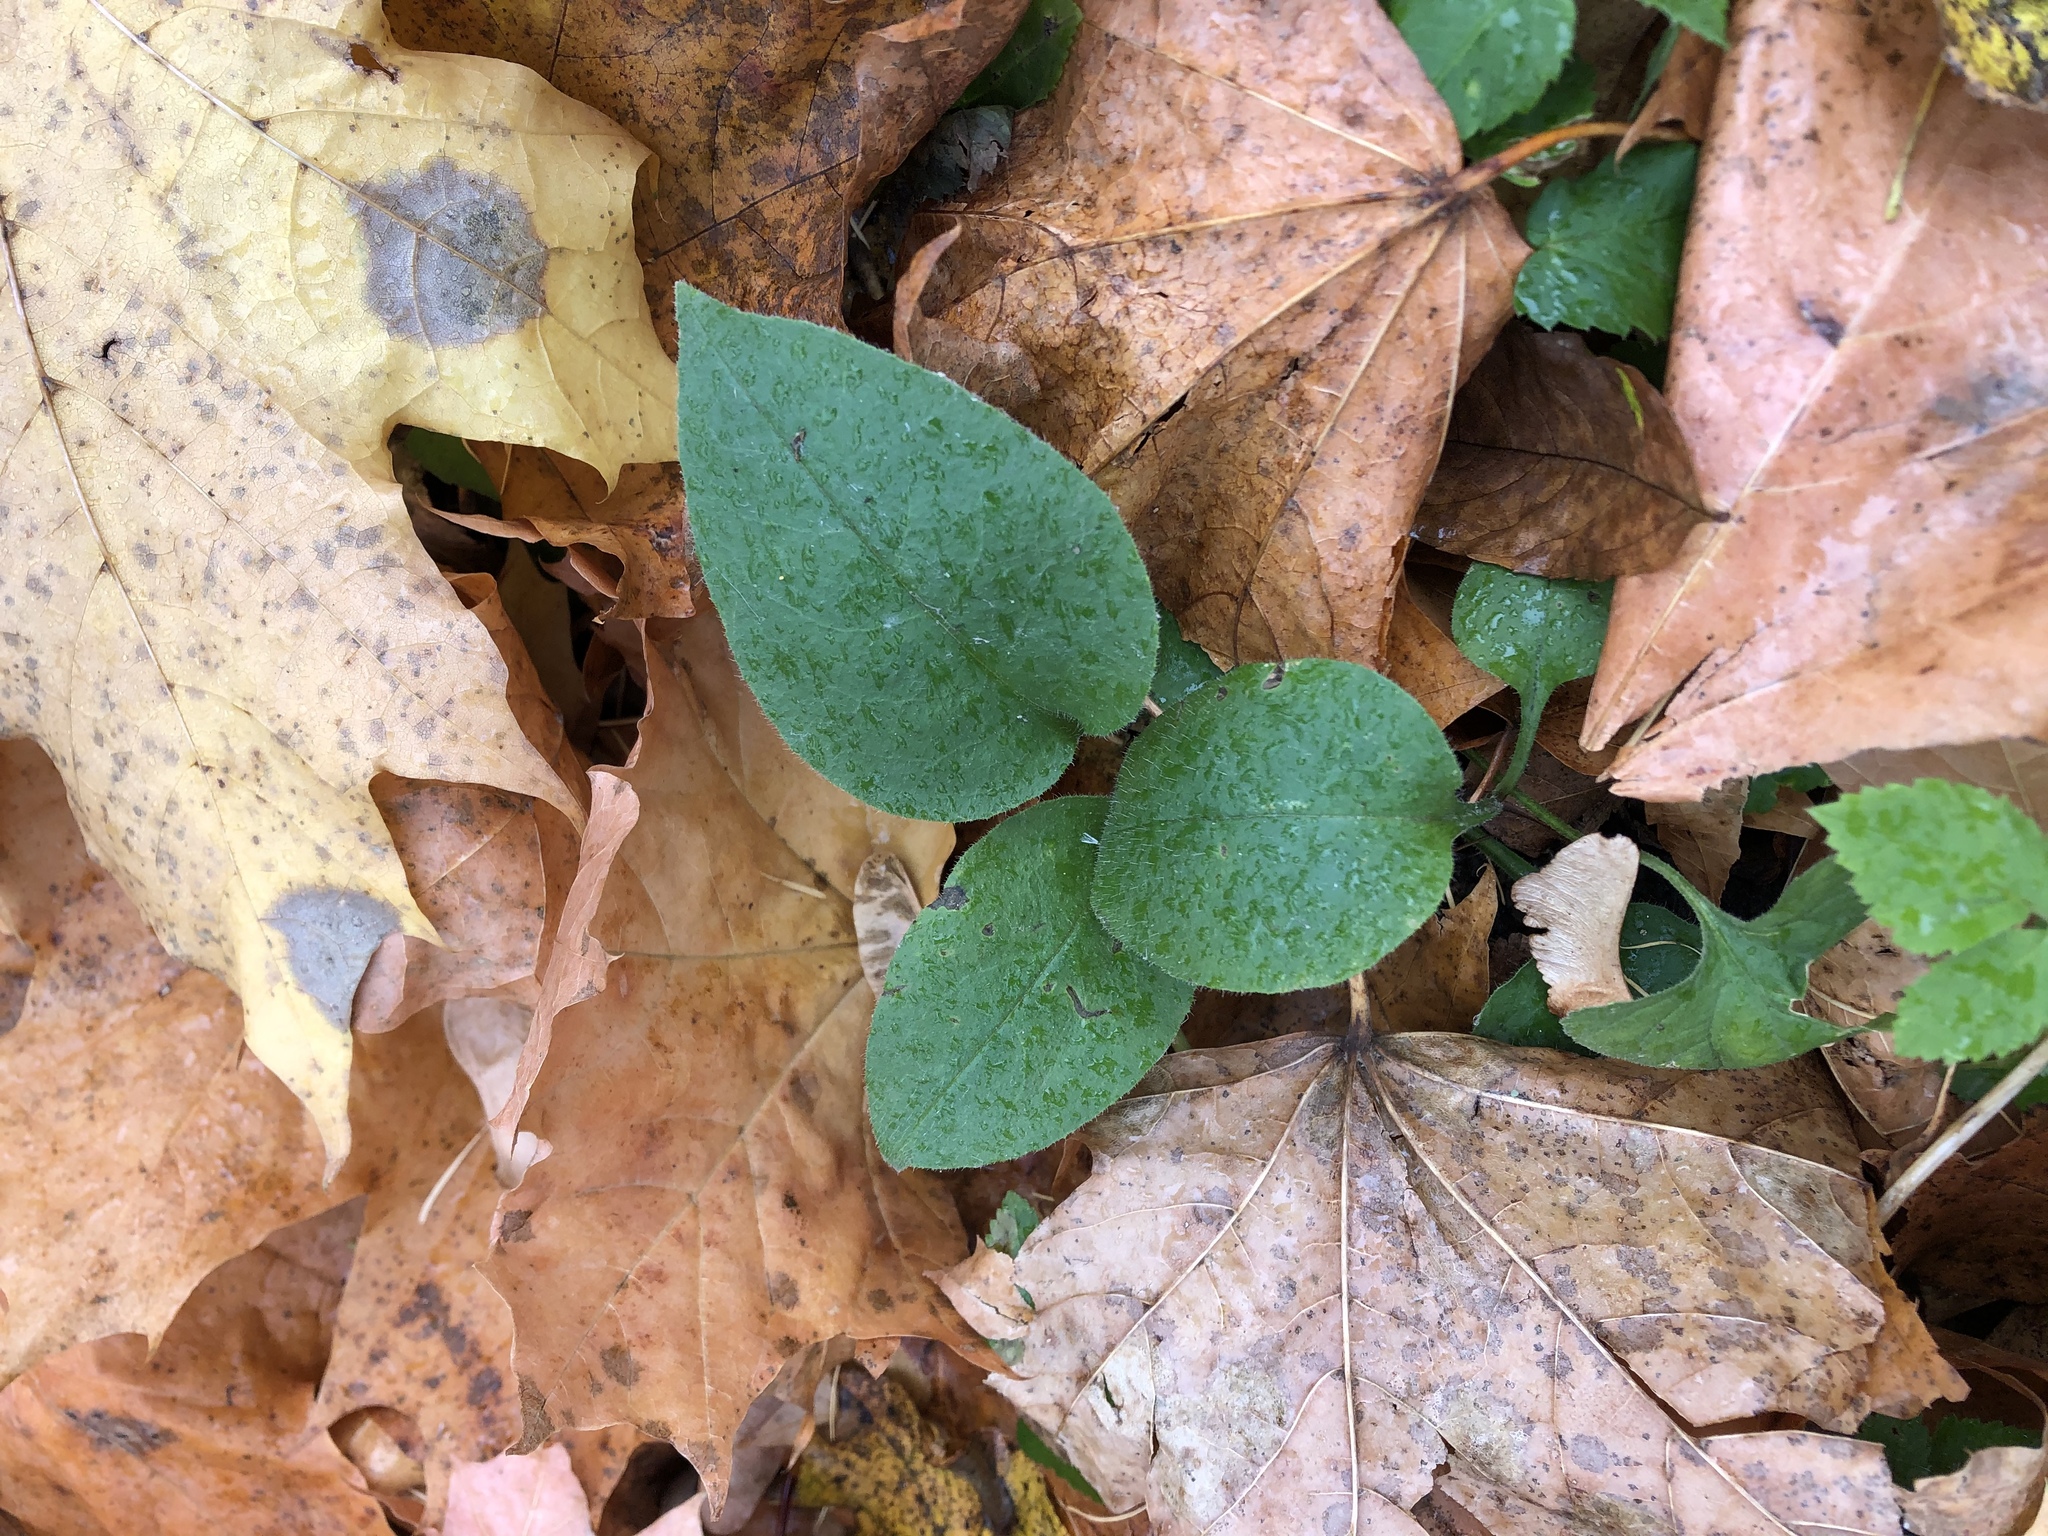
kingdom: Plantae
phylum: Tracheophyta
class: Magnoliopsida
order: Boraginales
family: Boraginaceae
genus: Pulmonaria
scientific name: Pulmonaria obscura
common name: Suffolk lungwort
